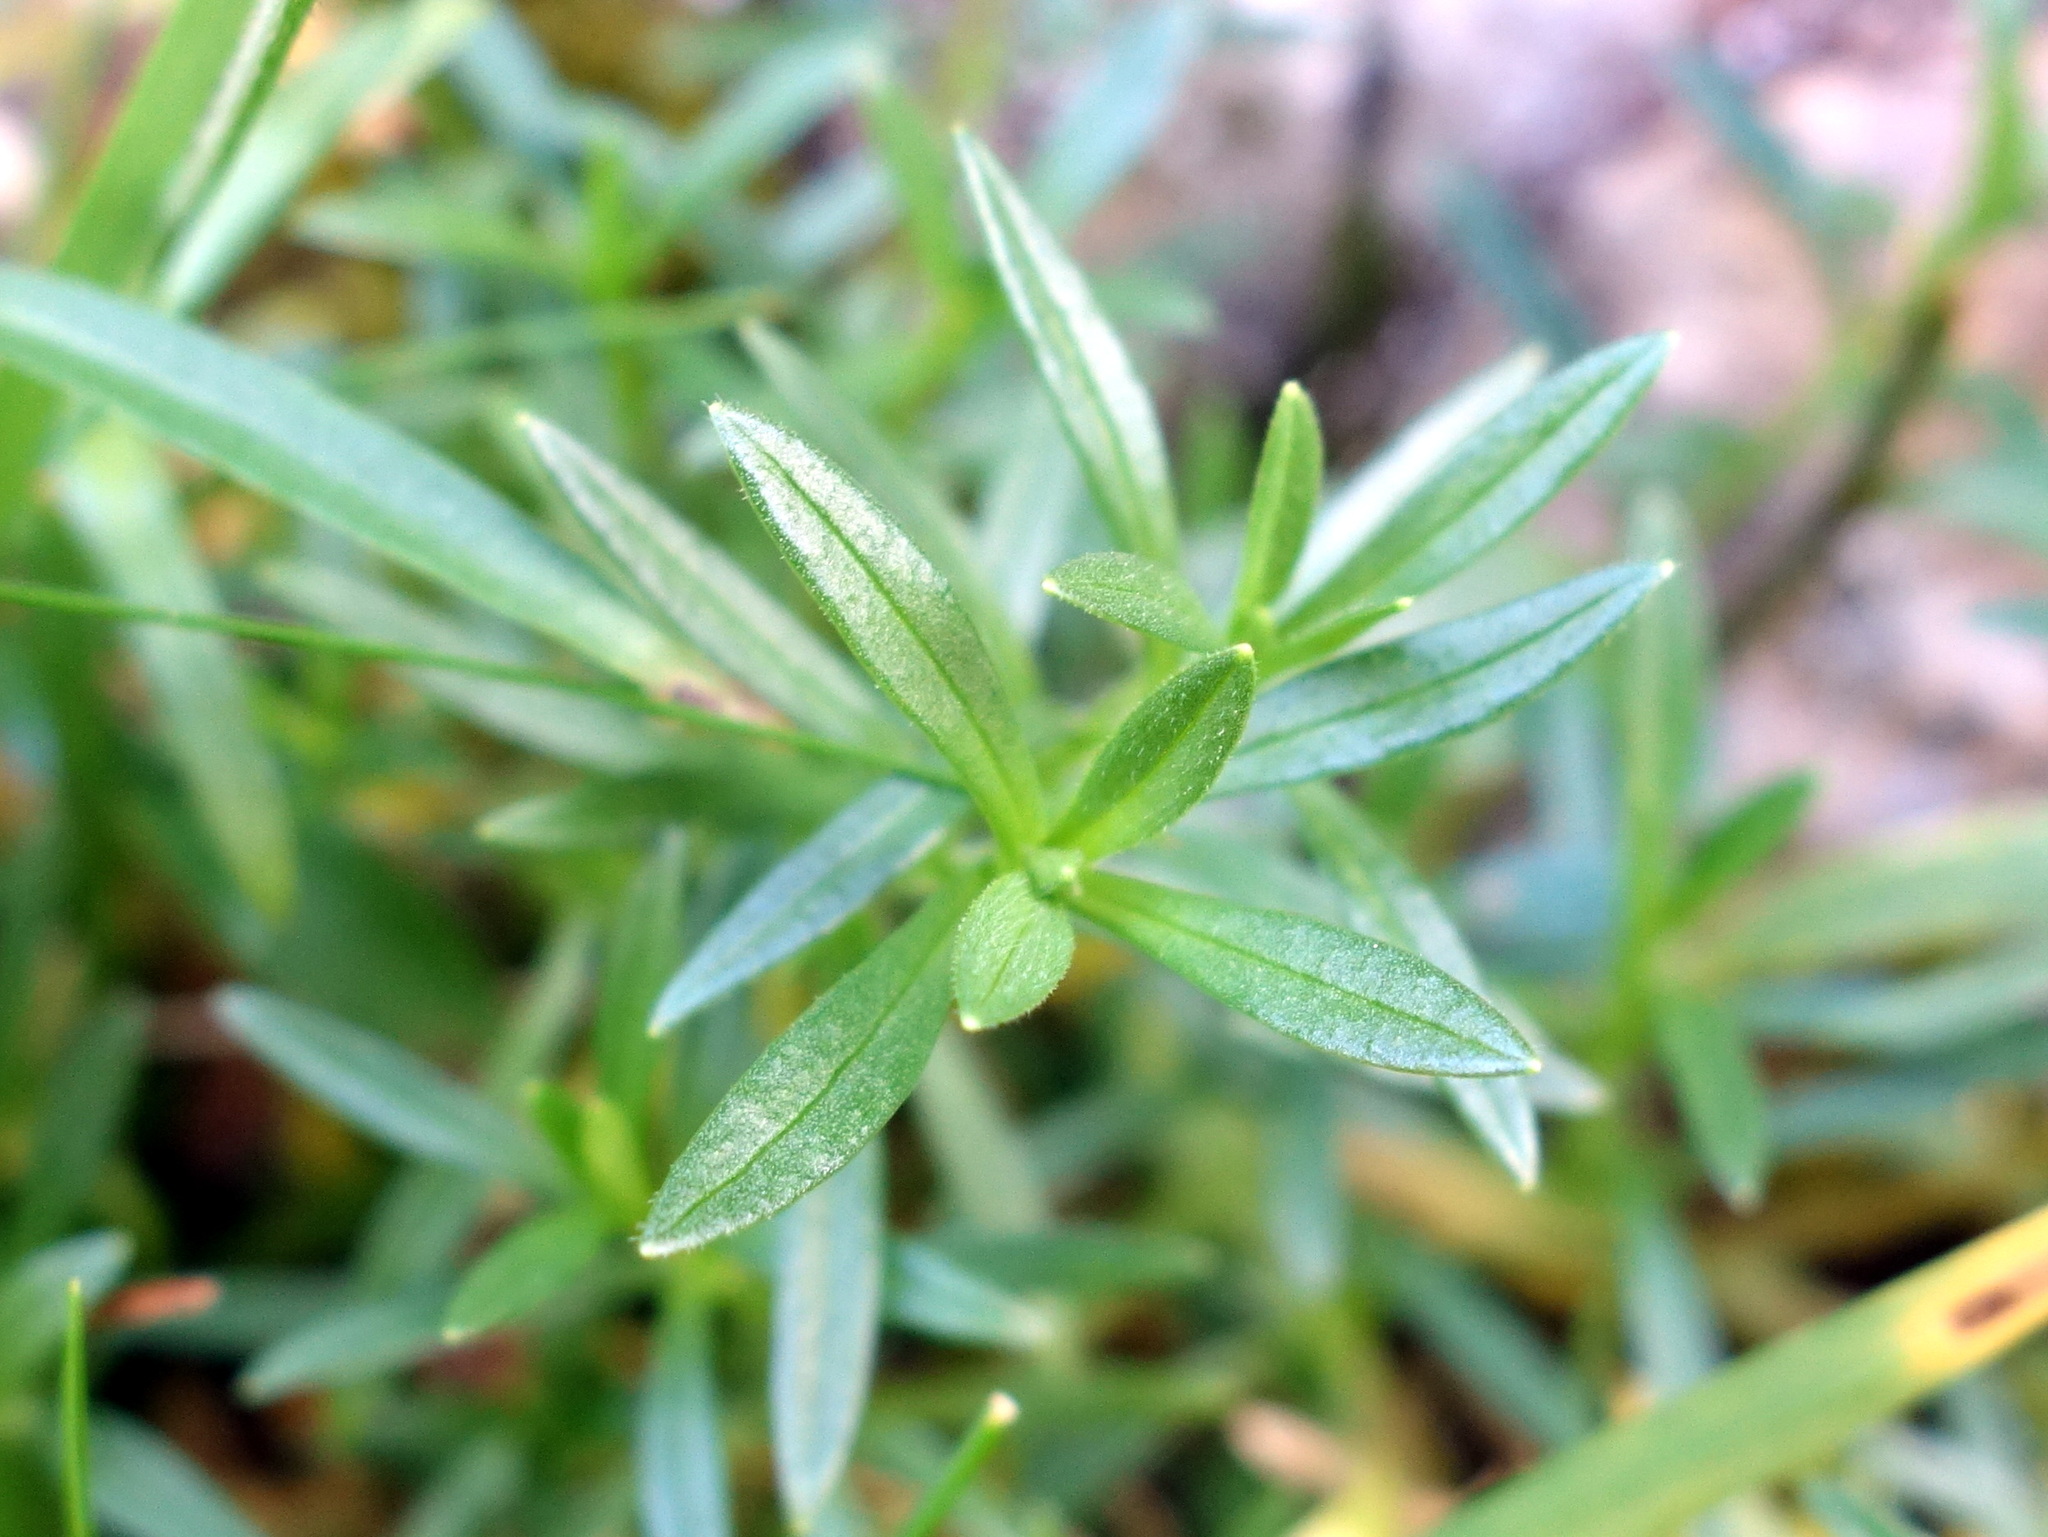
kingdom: Plantae
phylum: Tracheophyta
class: Magnoliopsida
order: Caryophyllales
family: Caryophyllaceae
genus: Cerastium
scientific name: Cerastium elongatum
